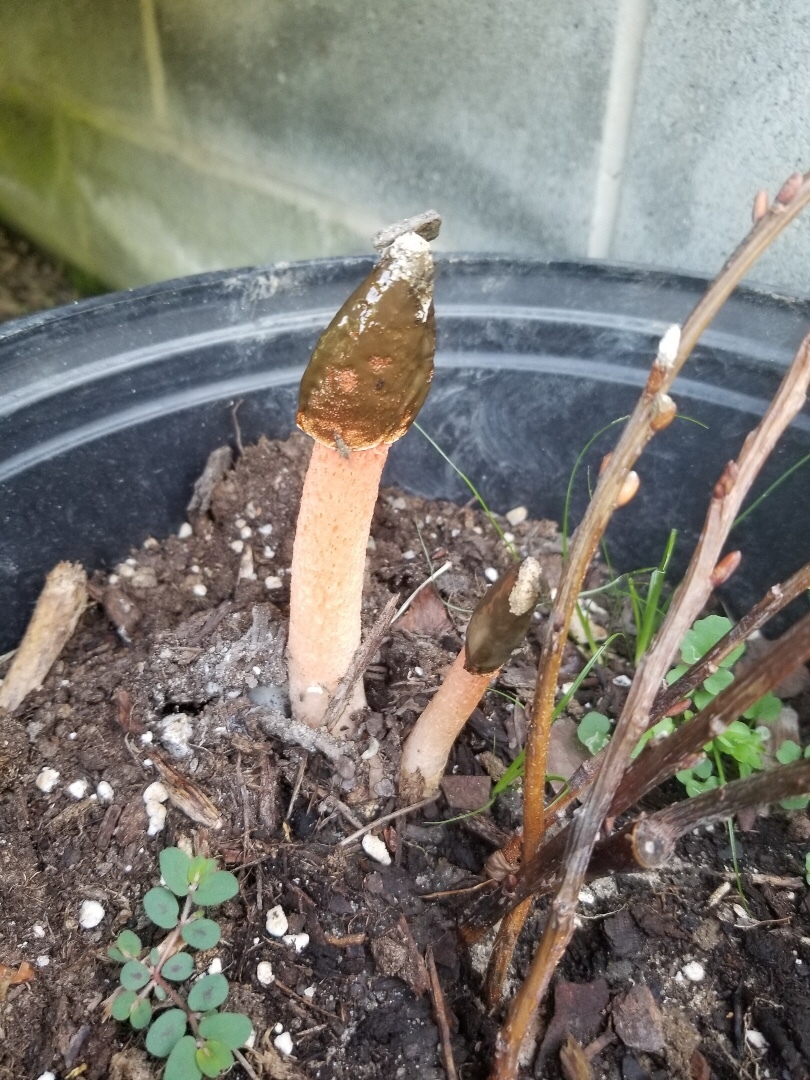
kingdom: Fungi
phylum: Basidiomycota
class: Agaricomycetes
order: Phallales
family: Phallaceae
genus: Phallus
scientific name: Phallus rugulosus
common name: Wrinkly stinkhorn
